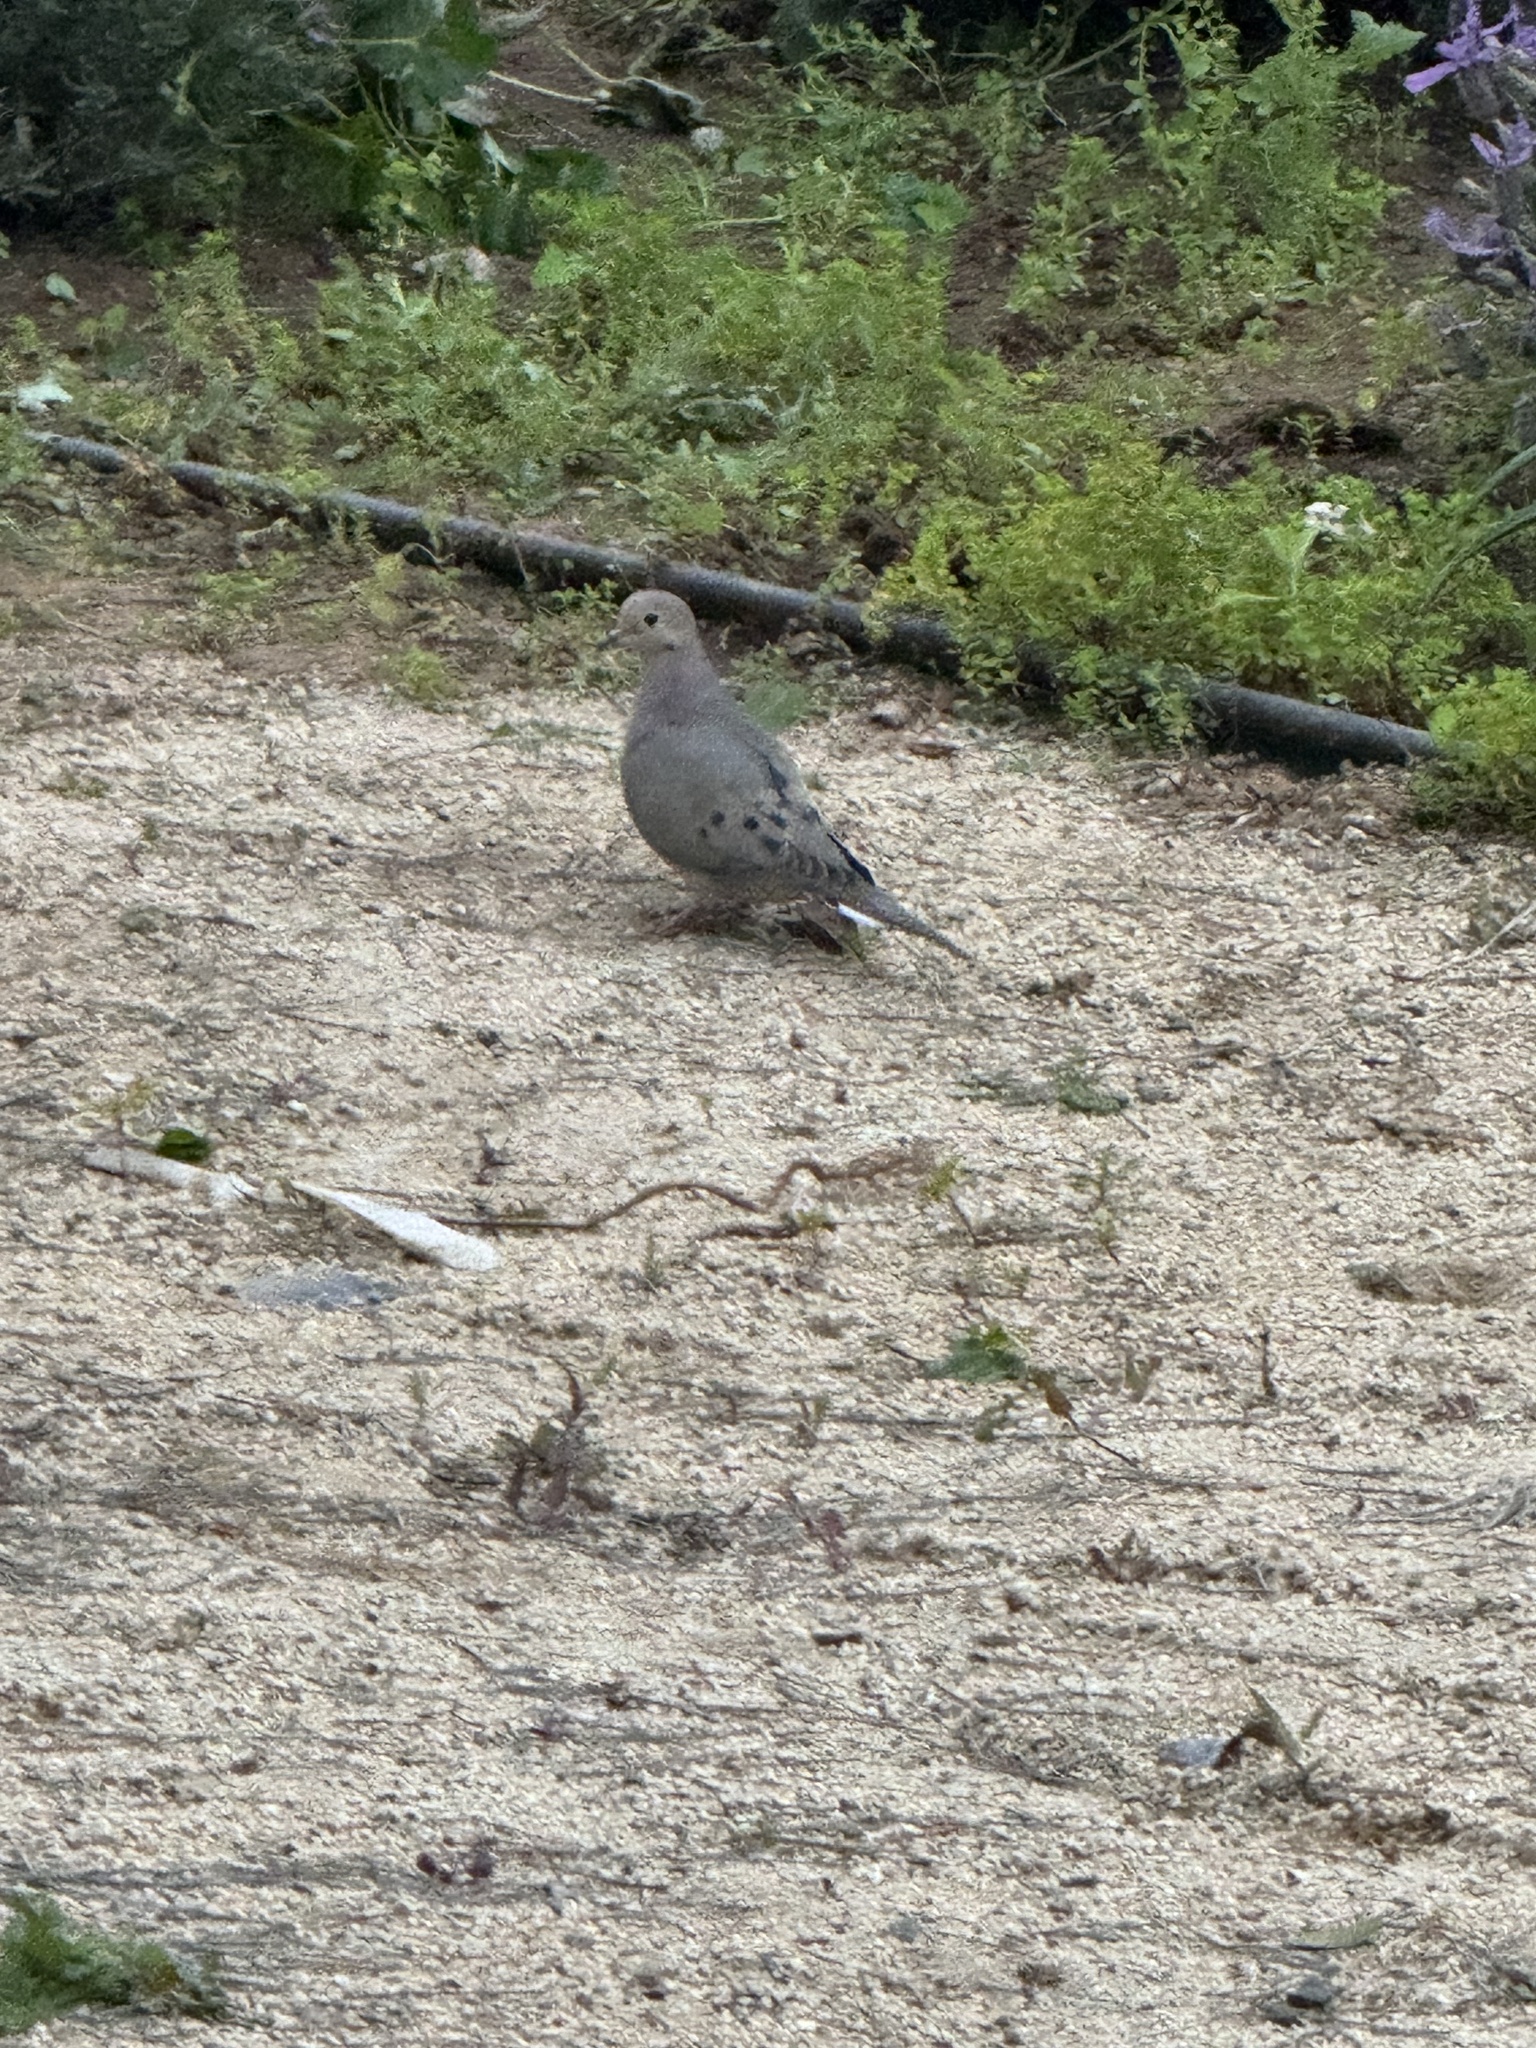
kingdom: Animalia
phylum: Chordata
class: Aves
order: Columbiformes
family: Columbidae
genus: Zenaida
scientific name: Zenaida macroura
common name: Mourning dove
